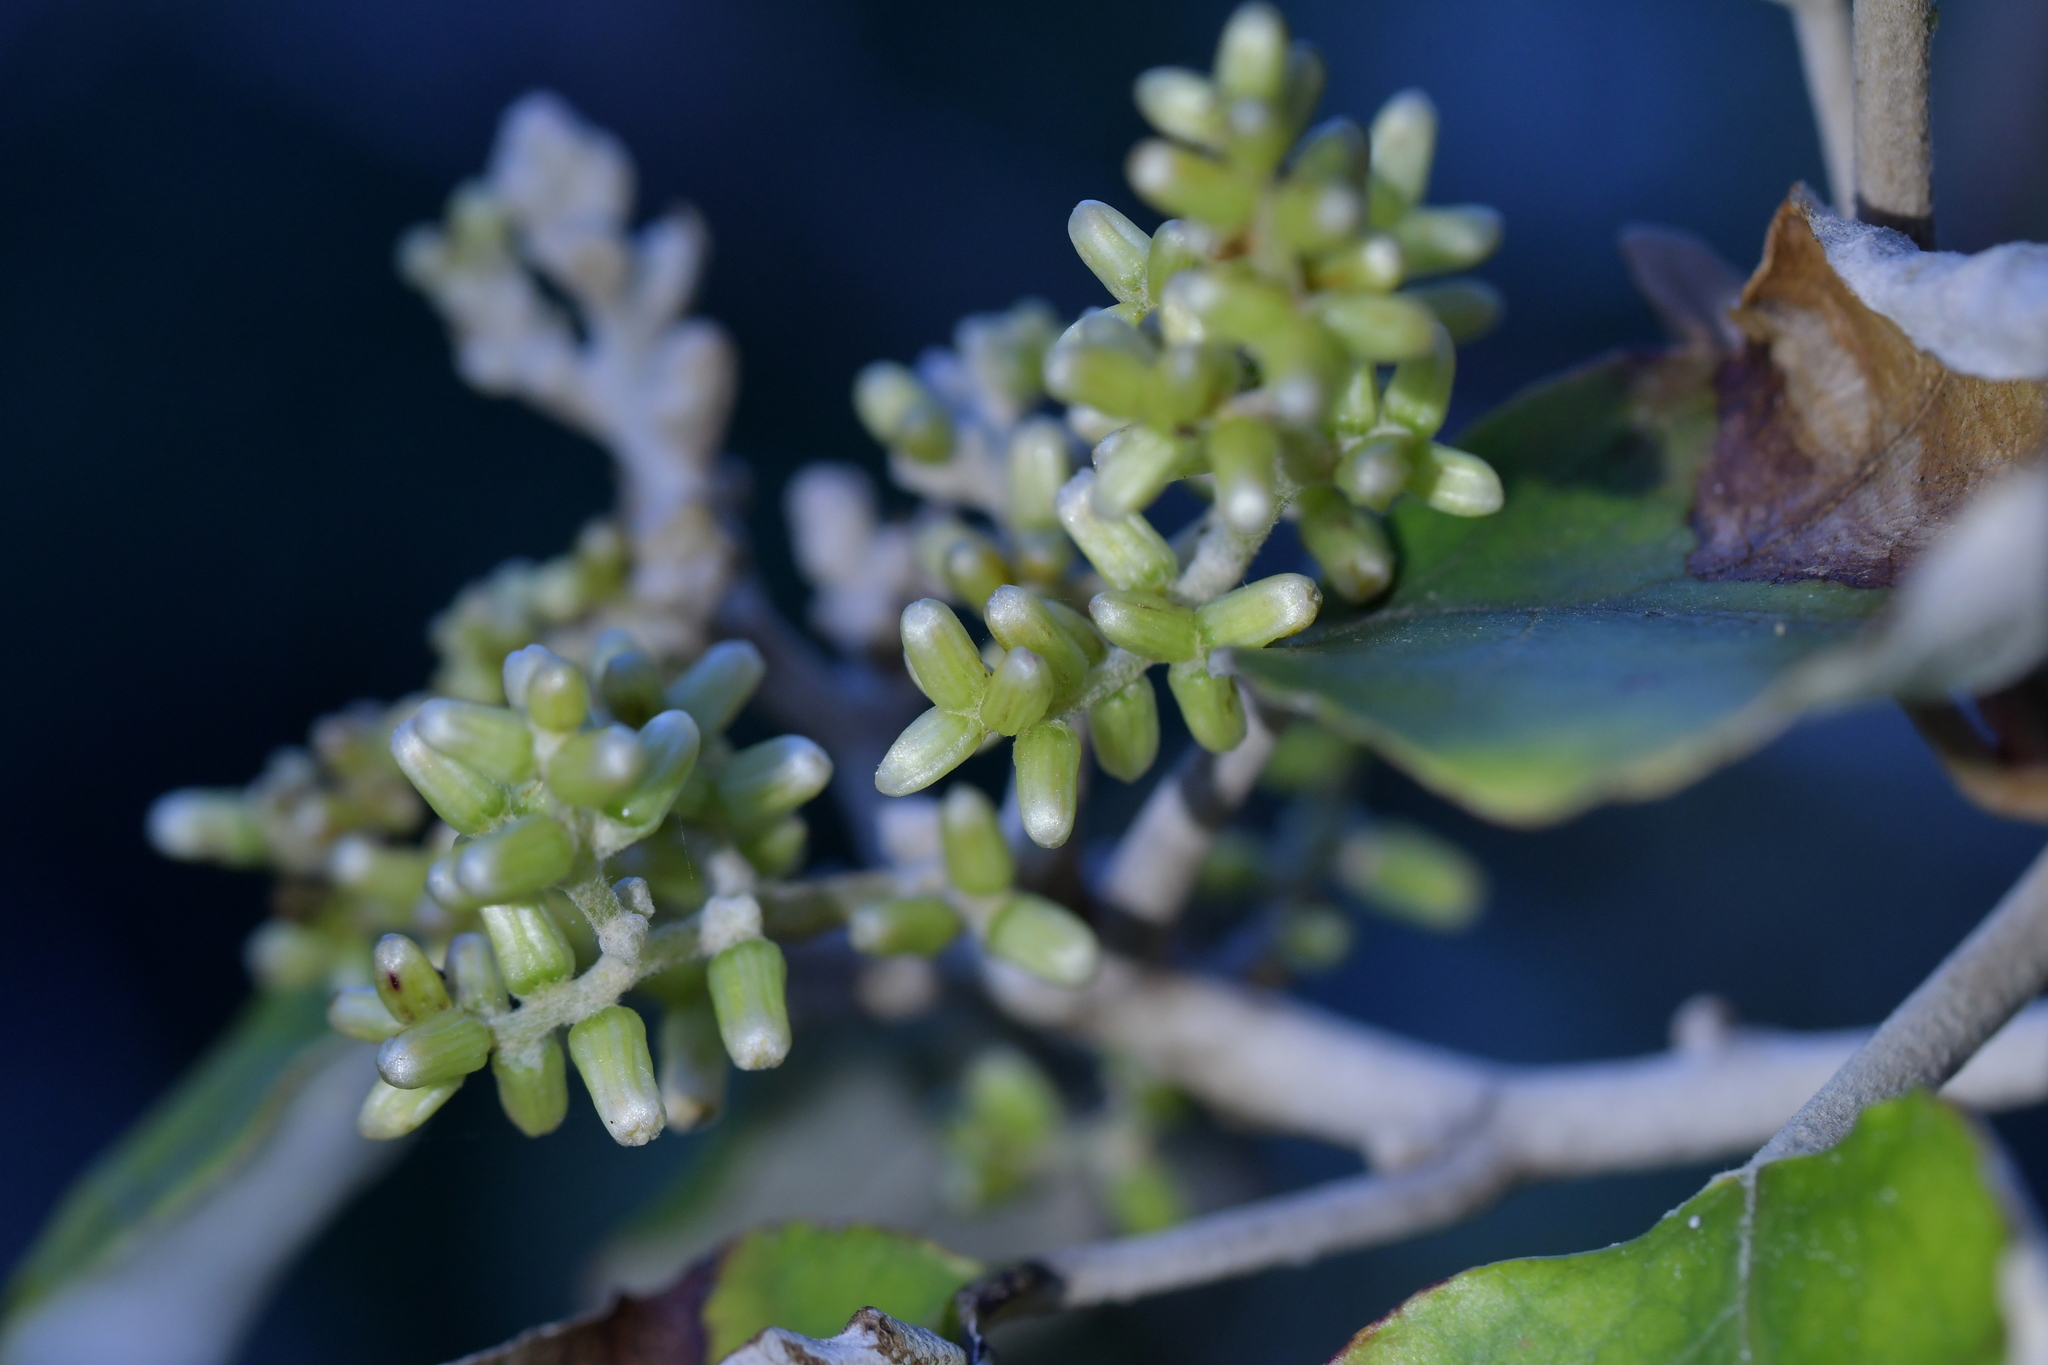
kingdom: Plantae
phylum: Tracheophyta
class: Magnoliopsida
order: Asterales
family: Asteraceae
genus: Brachyglottis
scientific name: Brachyglottis repanda
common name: Hedge ragwort
